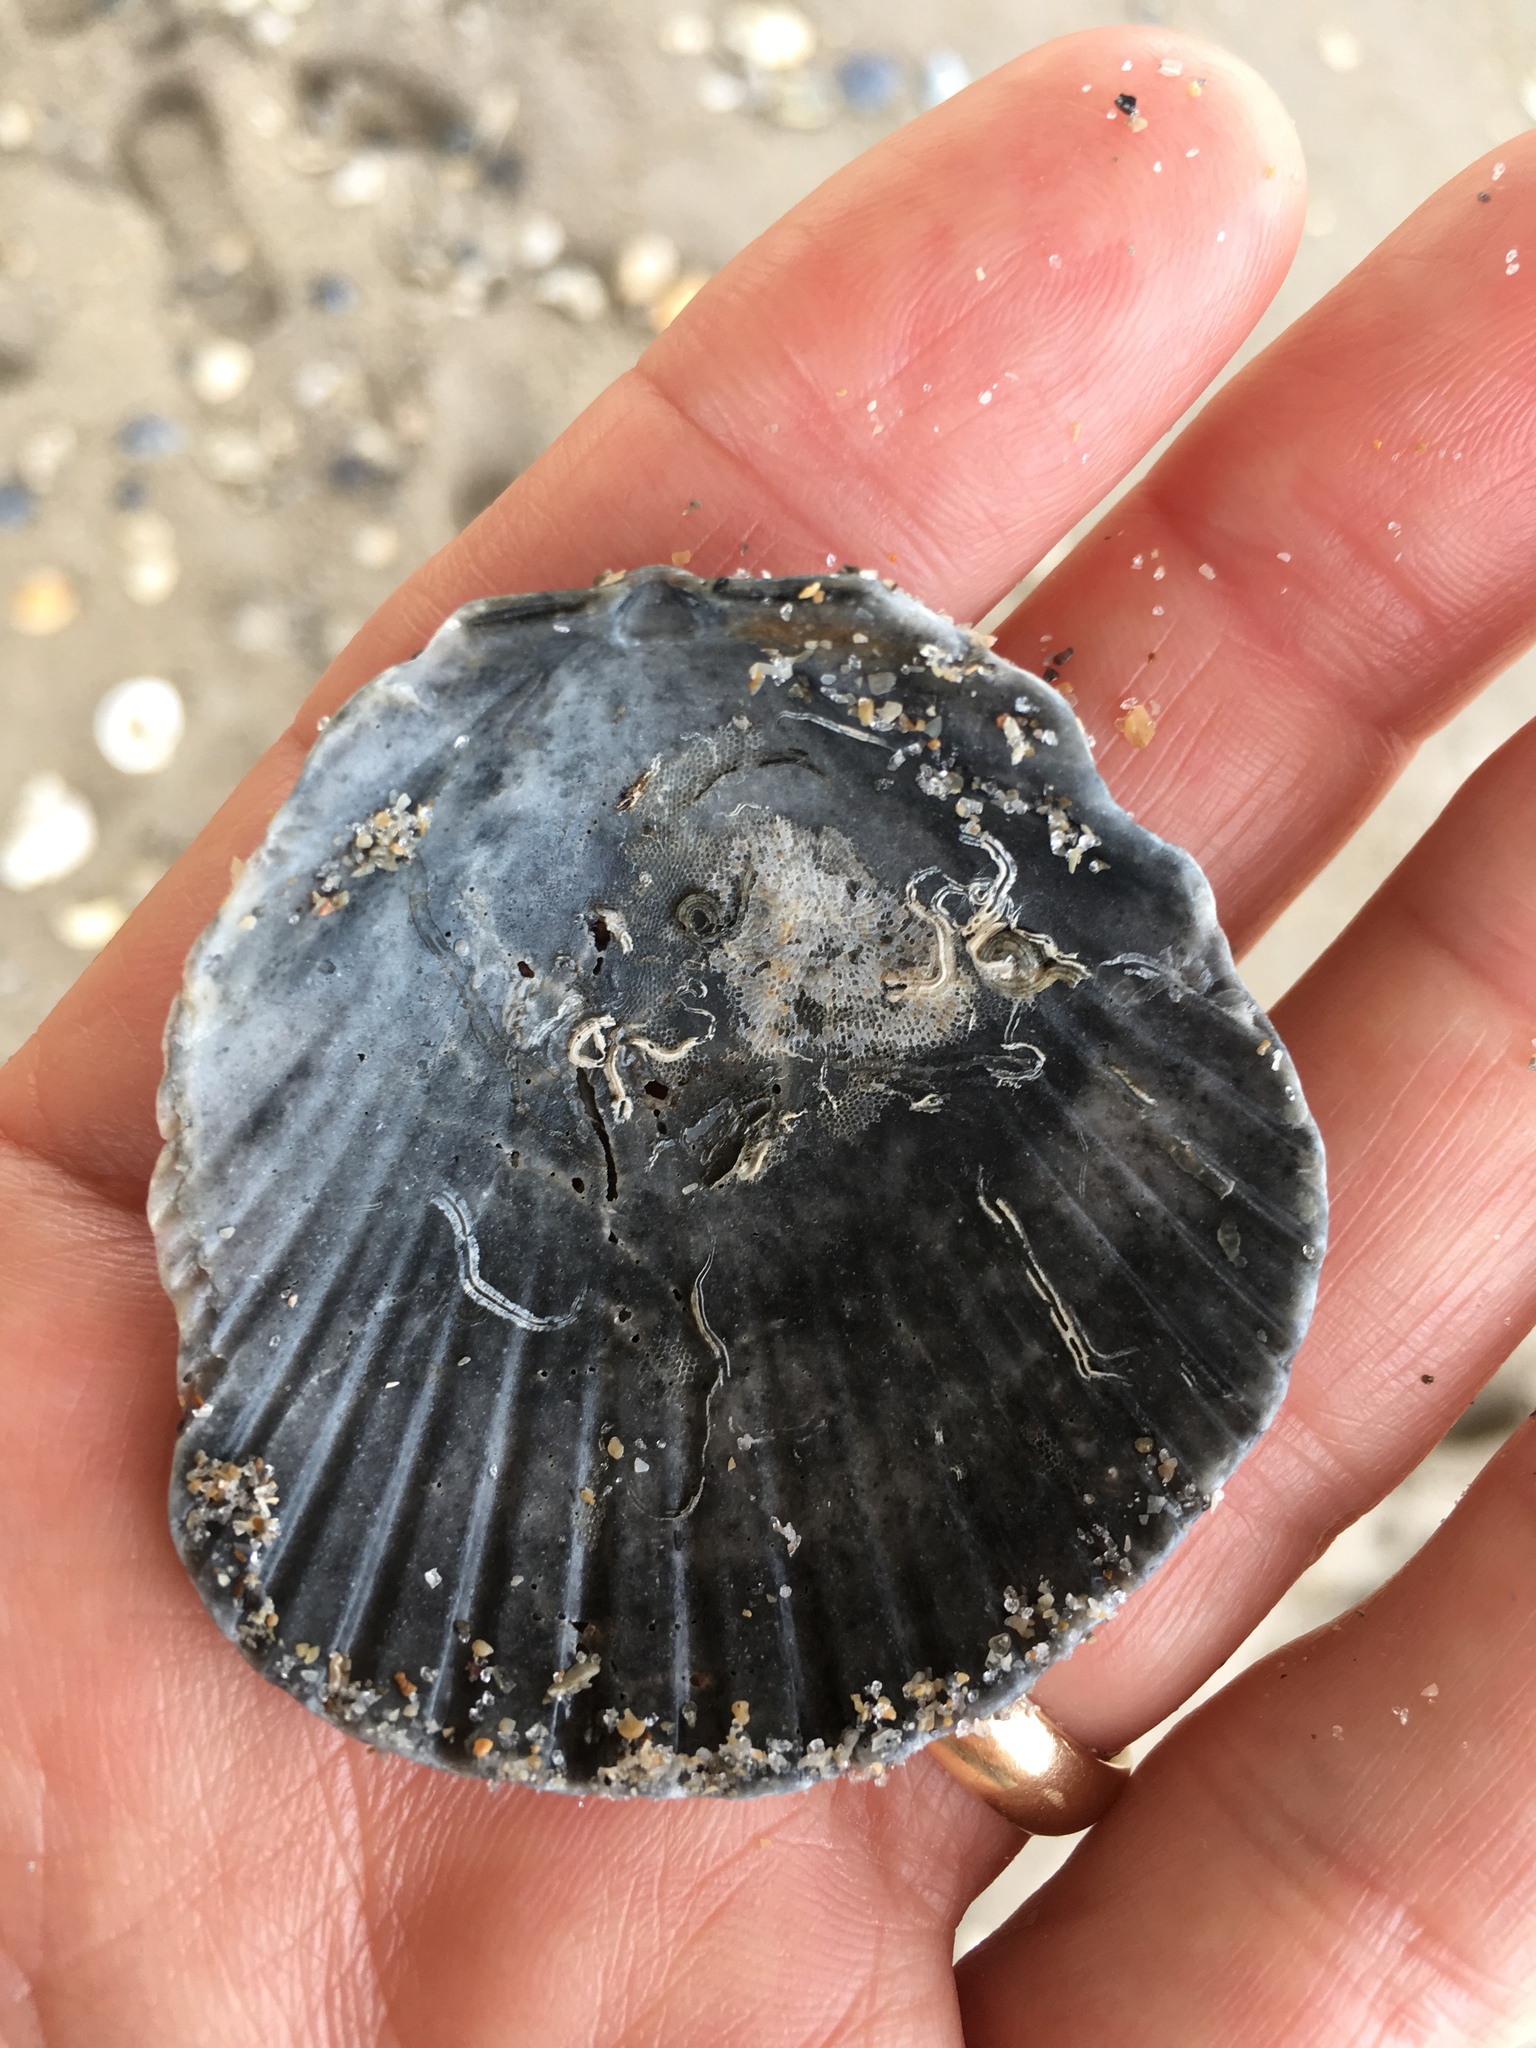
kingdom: Animalia
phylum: Mollusca
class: Bivalvia
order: Pectinida
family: Pectinidae
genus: Argopecten
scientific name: Argopecten gibbus
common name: Atlantic calico scallop
